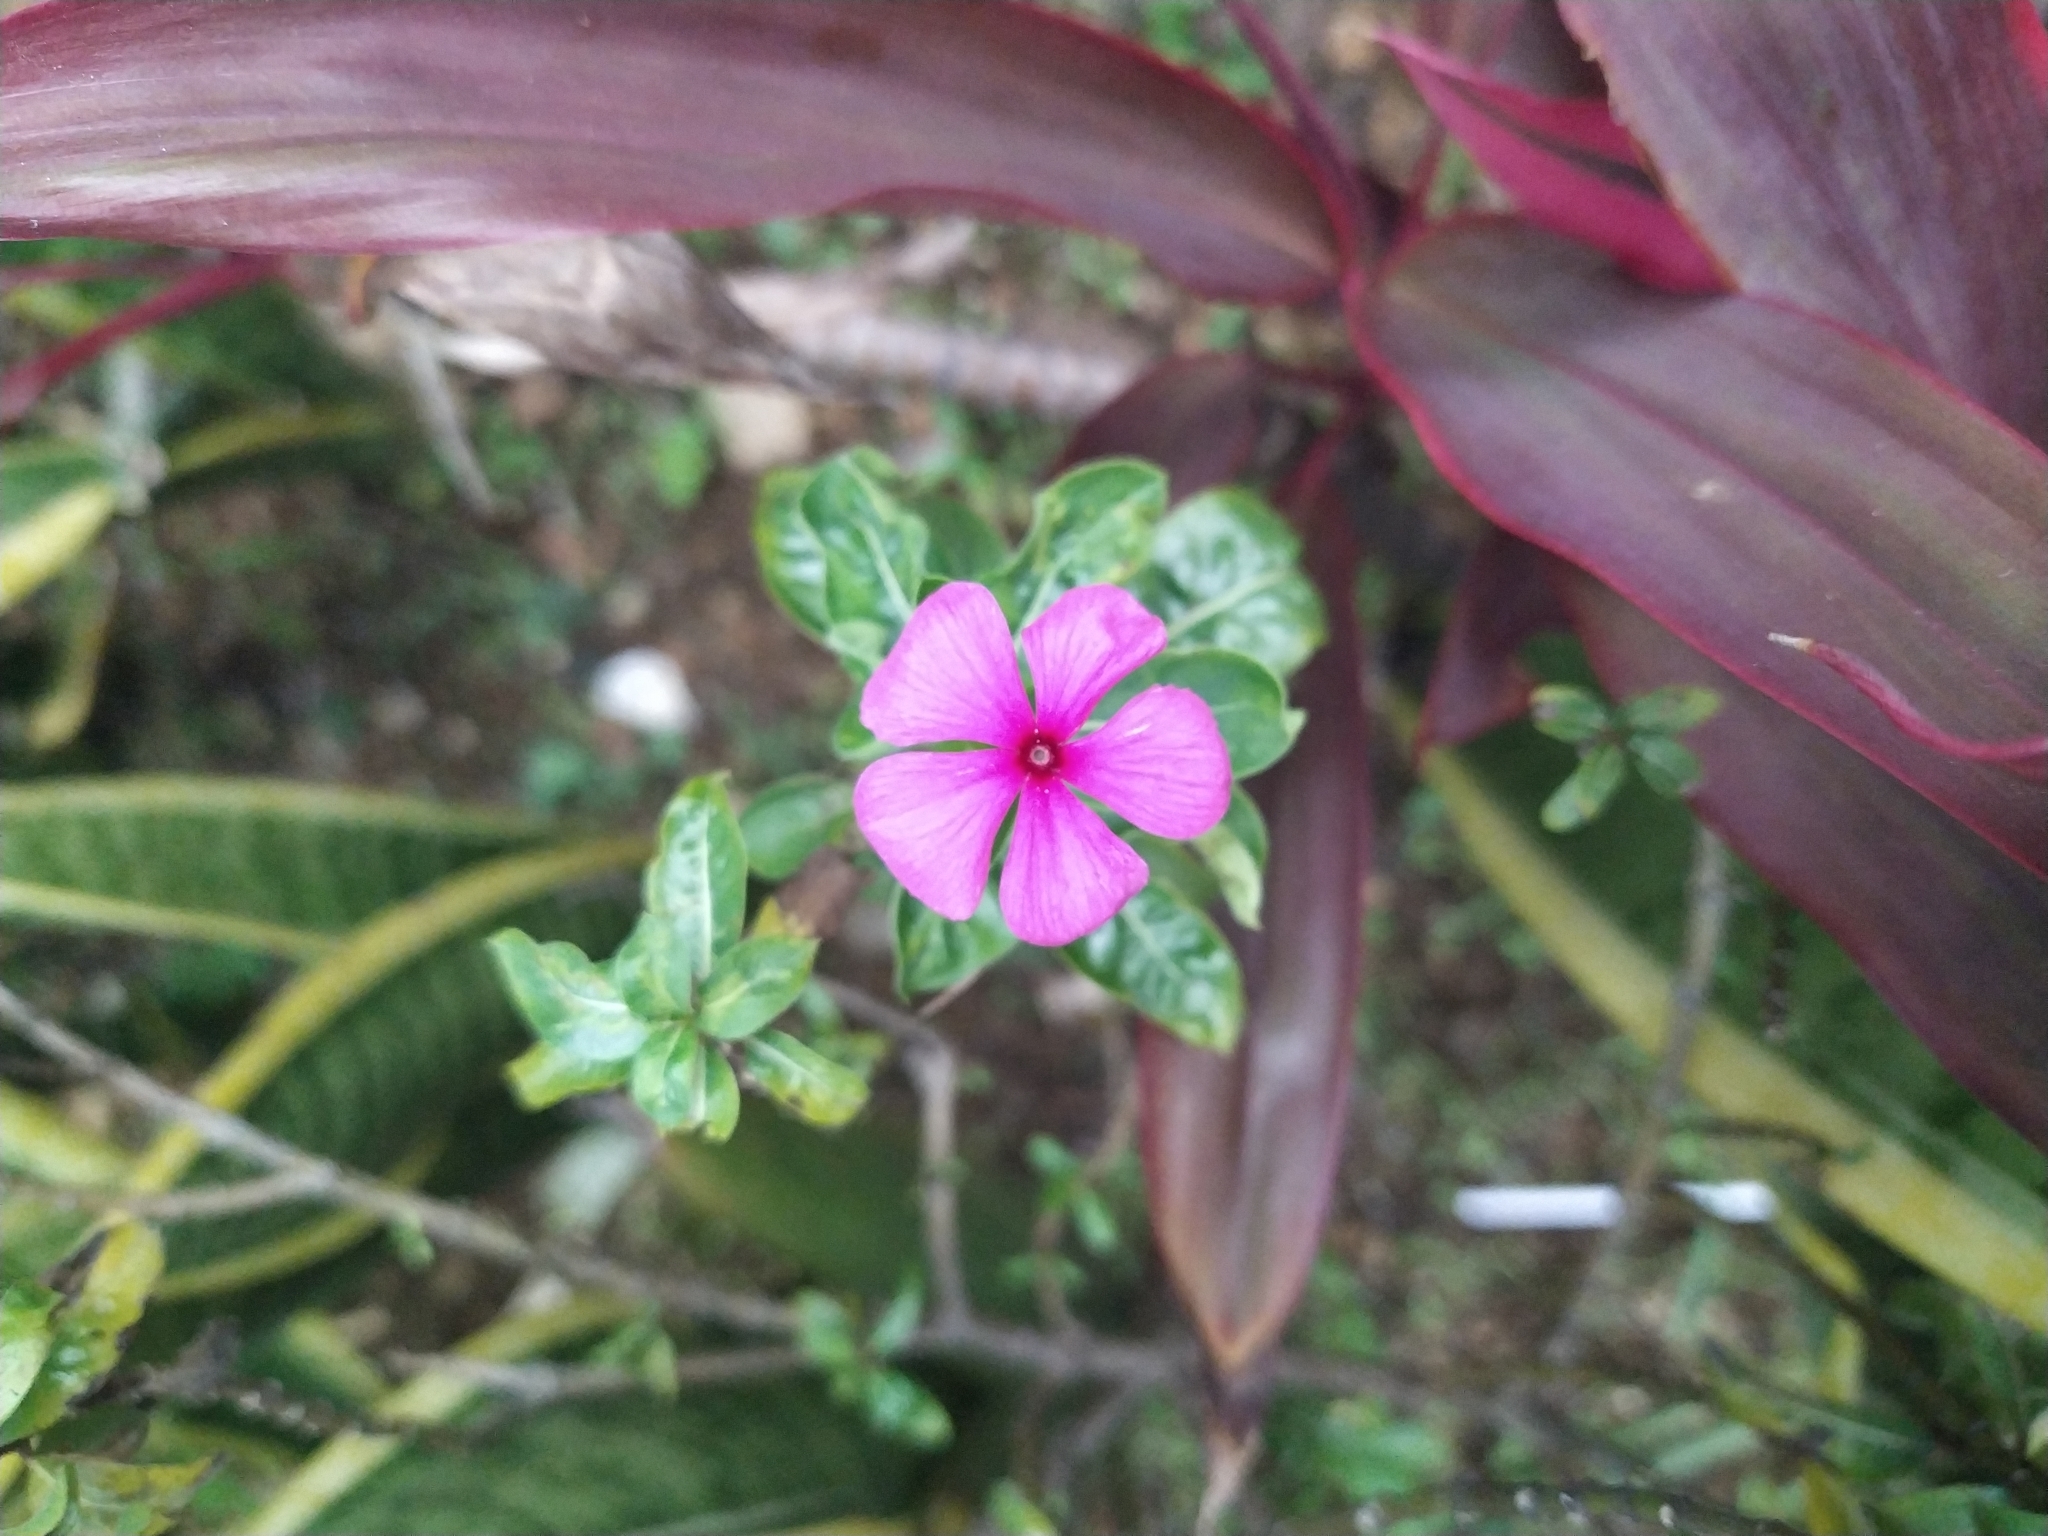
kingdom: Plantae
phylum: Tracheophyta
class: Magnoliopsida
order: Gentianales
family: Apocynaceae
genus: Catharanthus
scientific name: Catharanthus roseus
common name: Madagascar periwinkle
